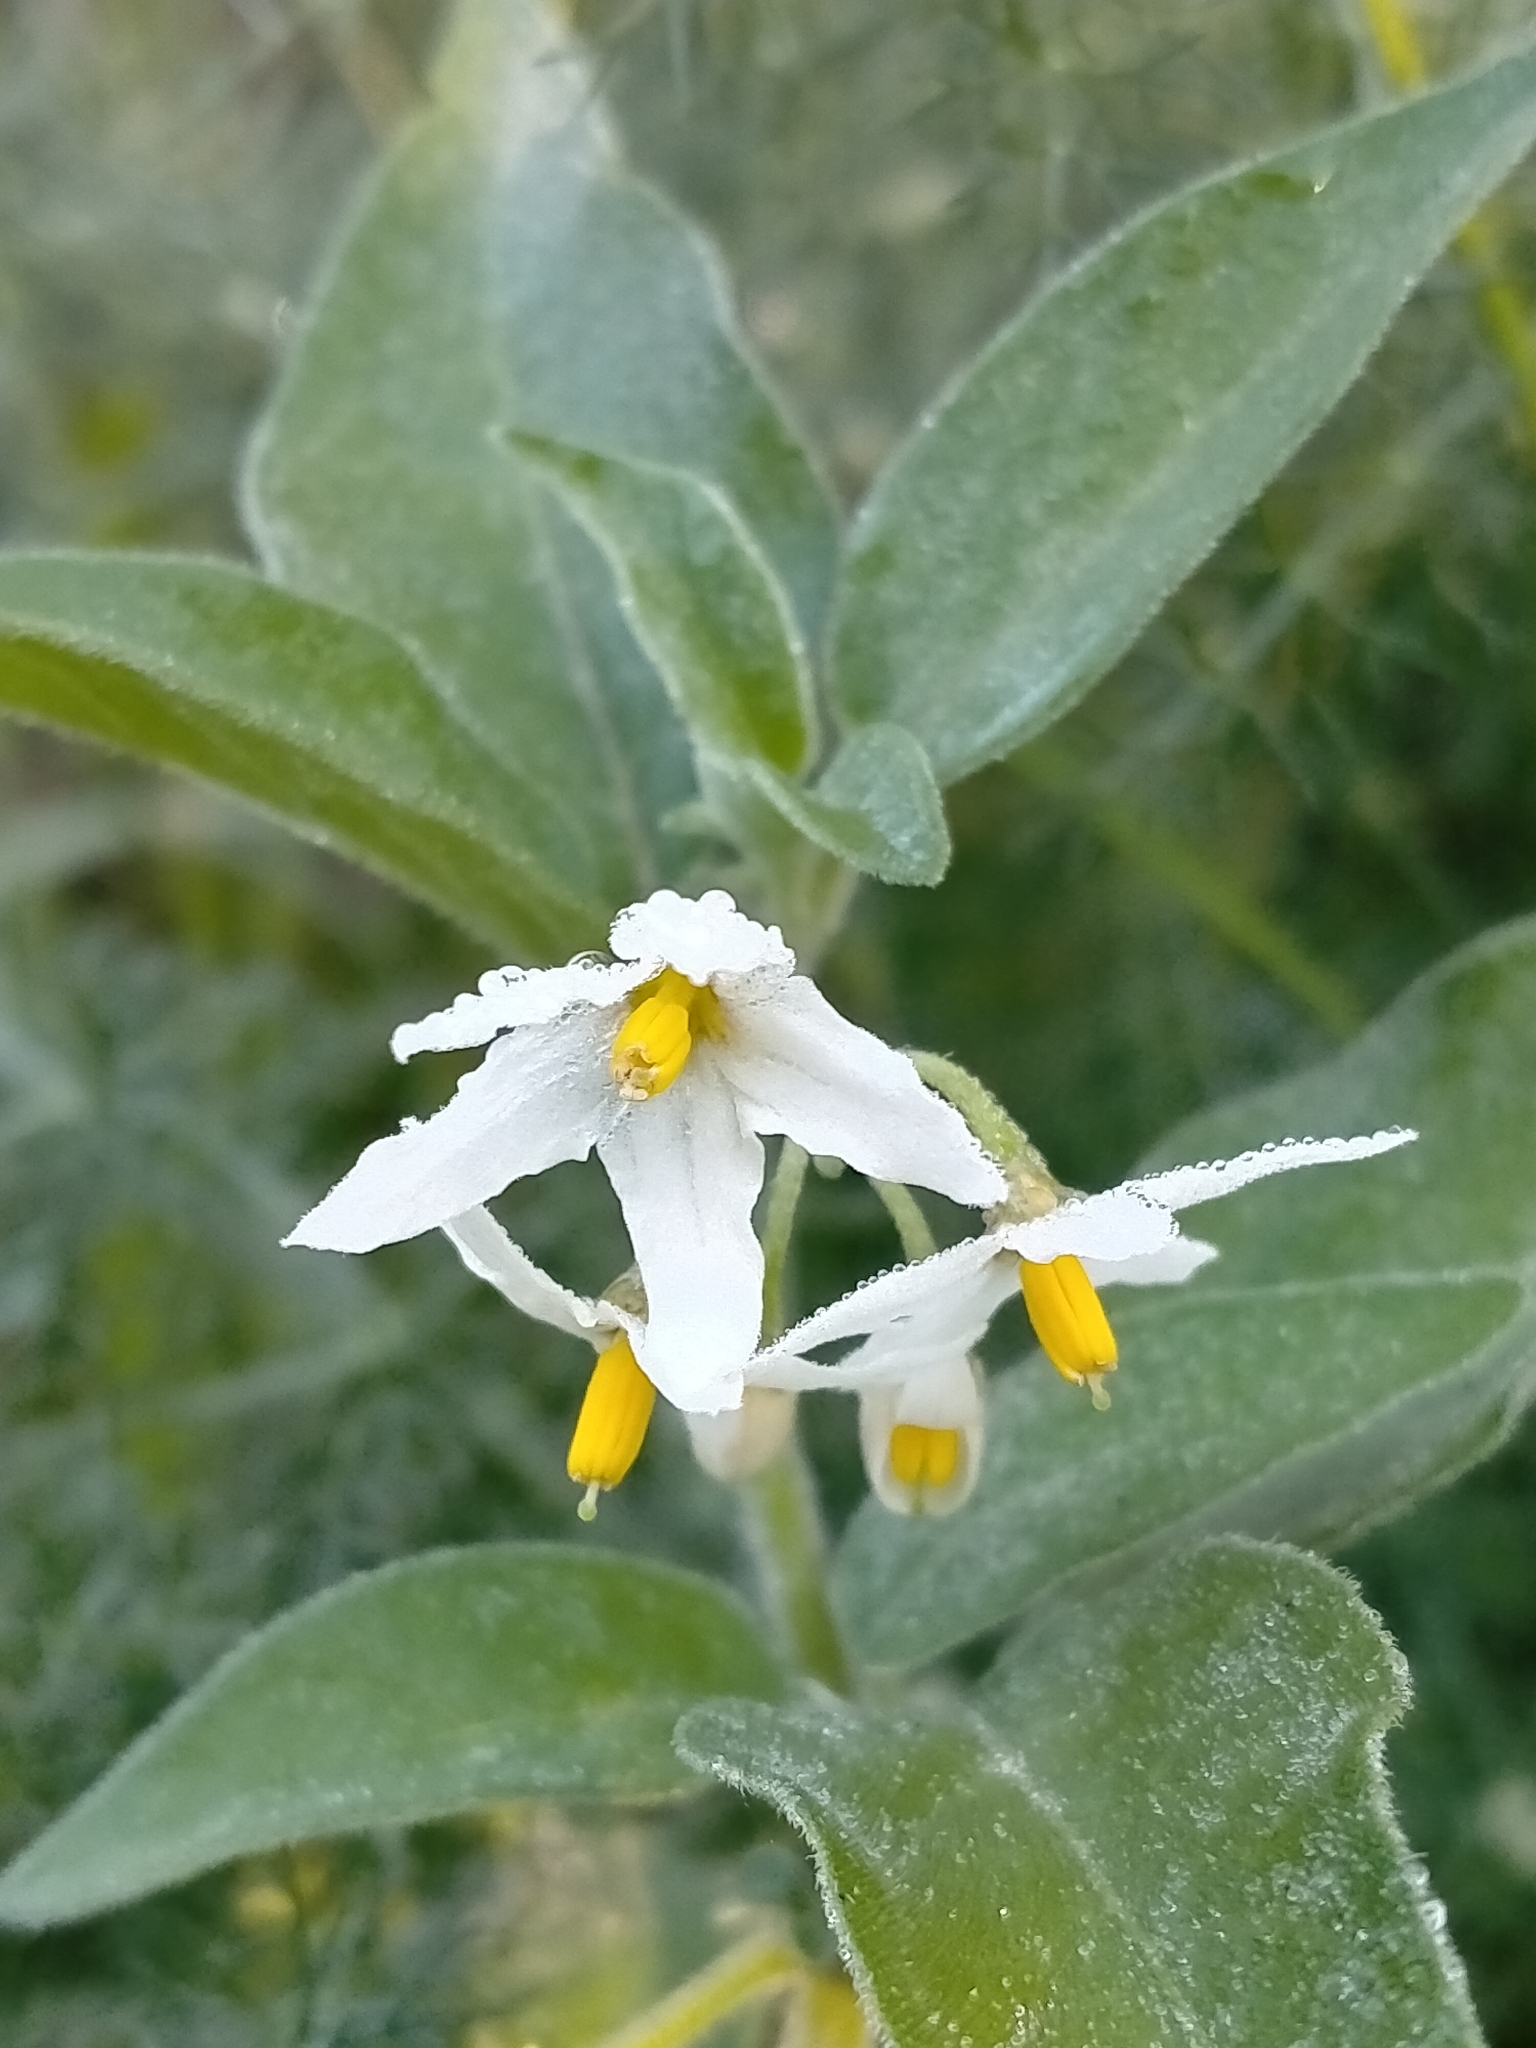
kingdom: Plantae
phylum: Tracheophyta
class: Magnoliopsida
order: Solanales
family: Solanaceae
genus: Solanum
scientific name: Solanum chenopodioides
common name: Tall nightshade
